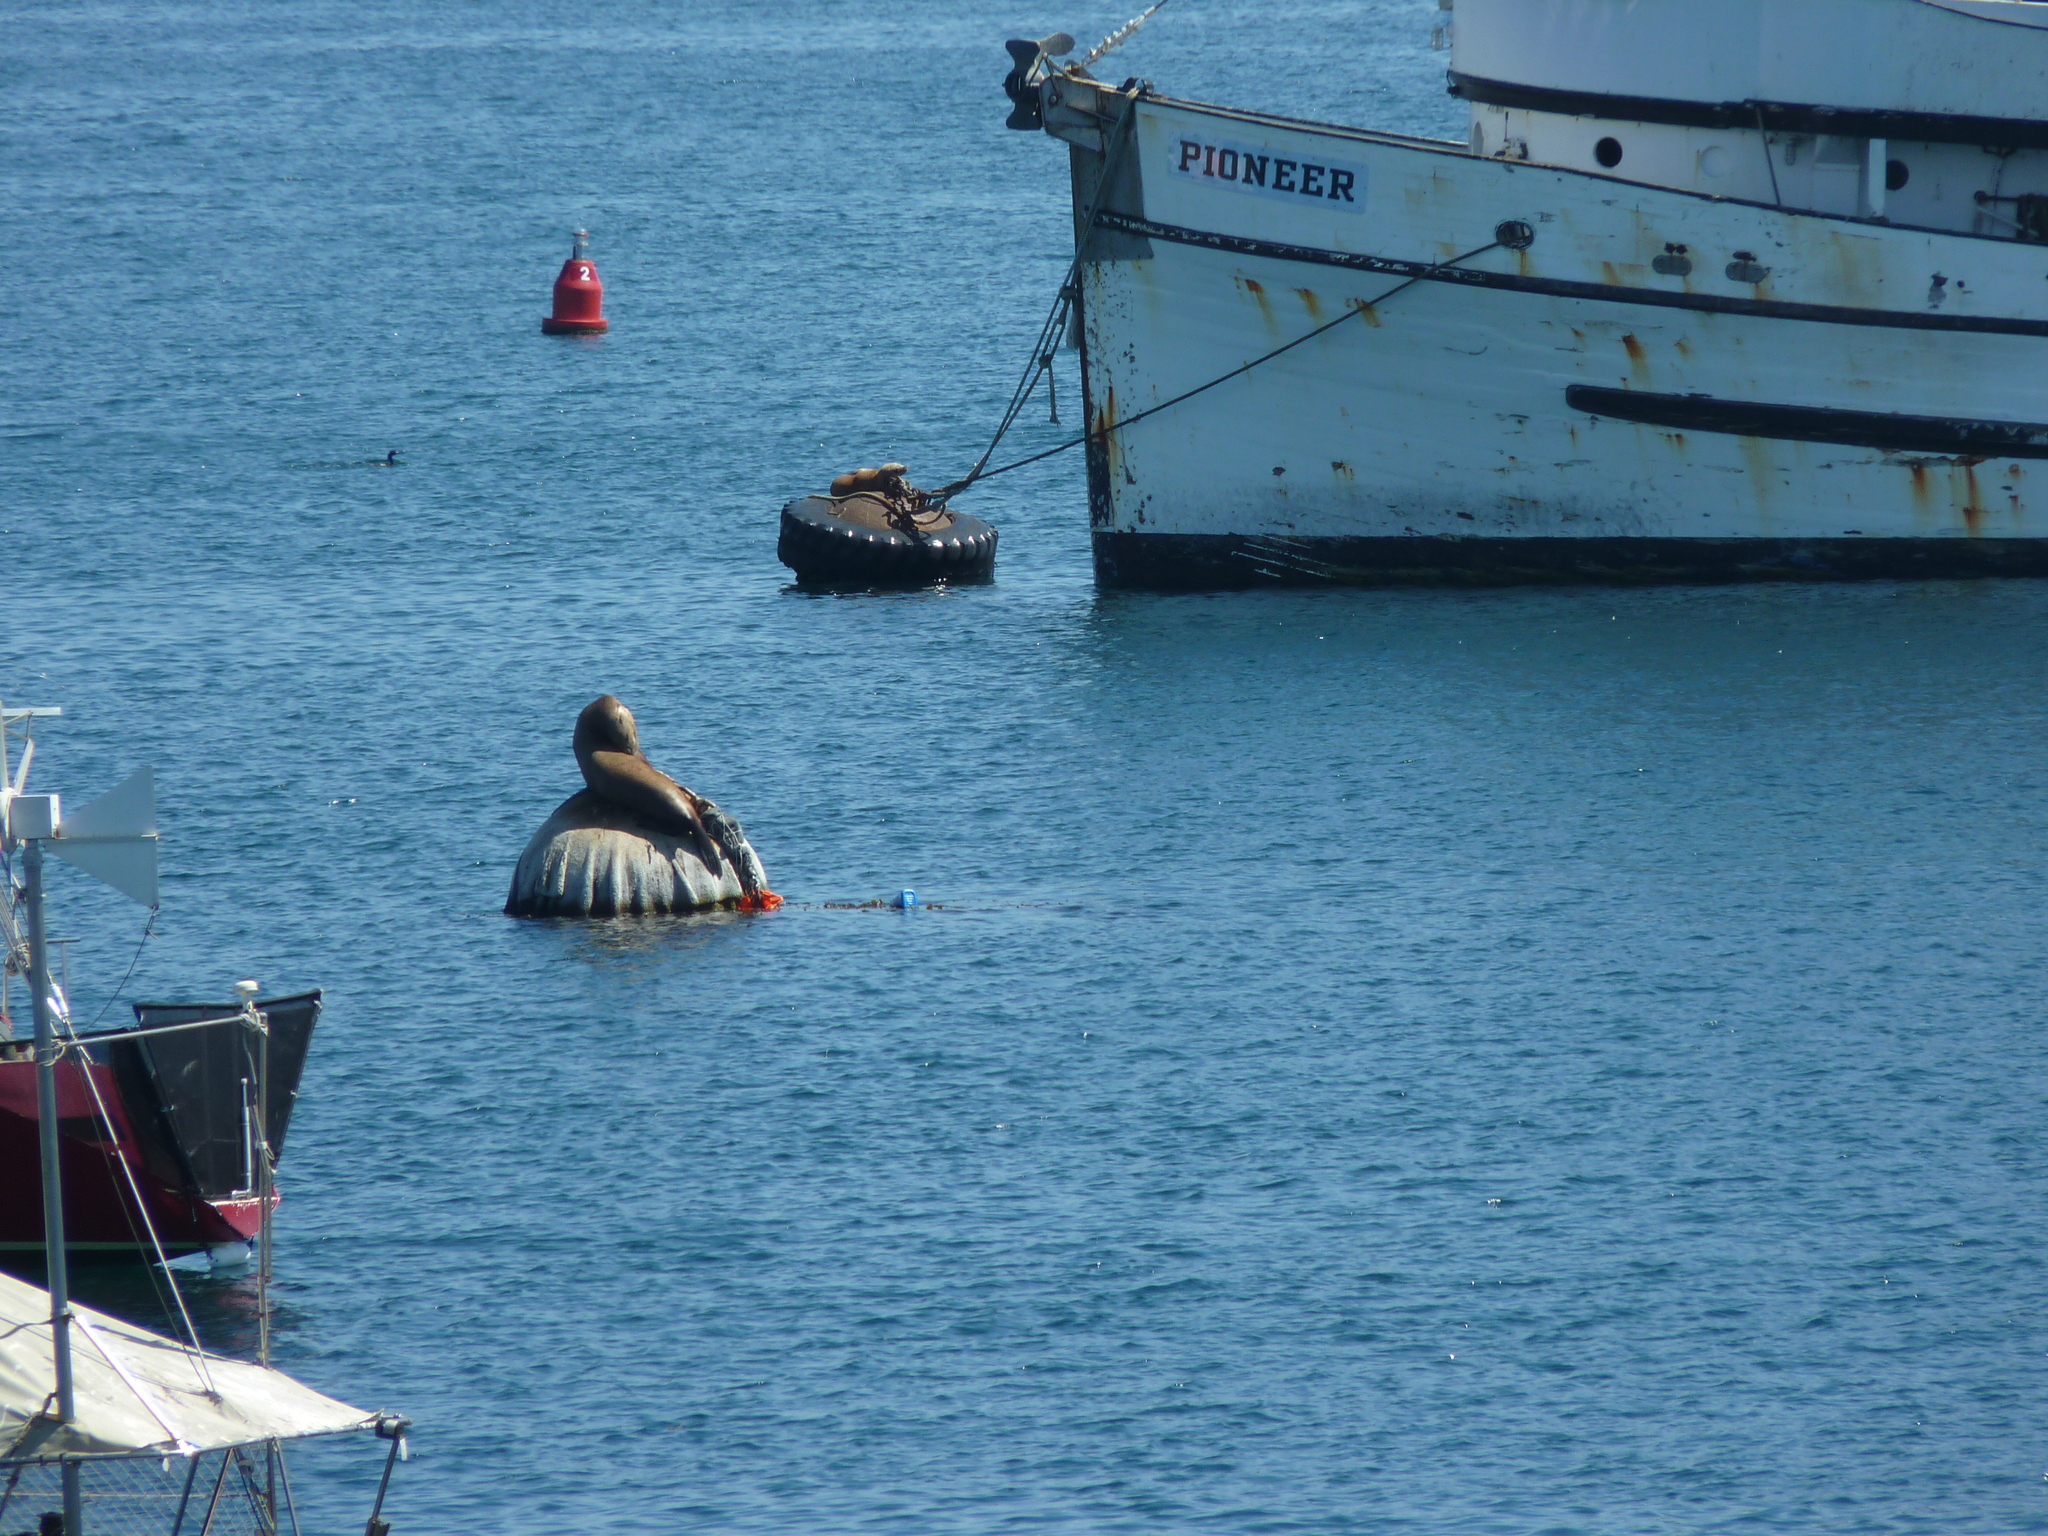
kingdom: Animalia
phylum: Chordata
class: Mammalia
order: Carnivora
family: Otariidae
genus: Zalophus
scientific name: Zalophus californianus
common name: California sea lion
